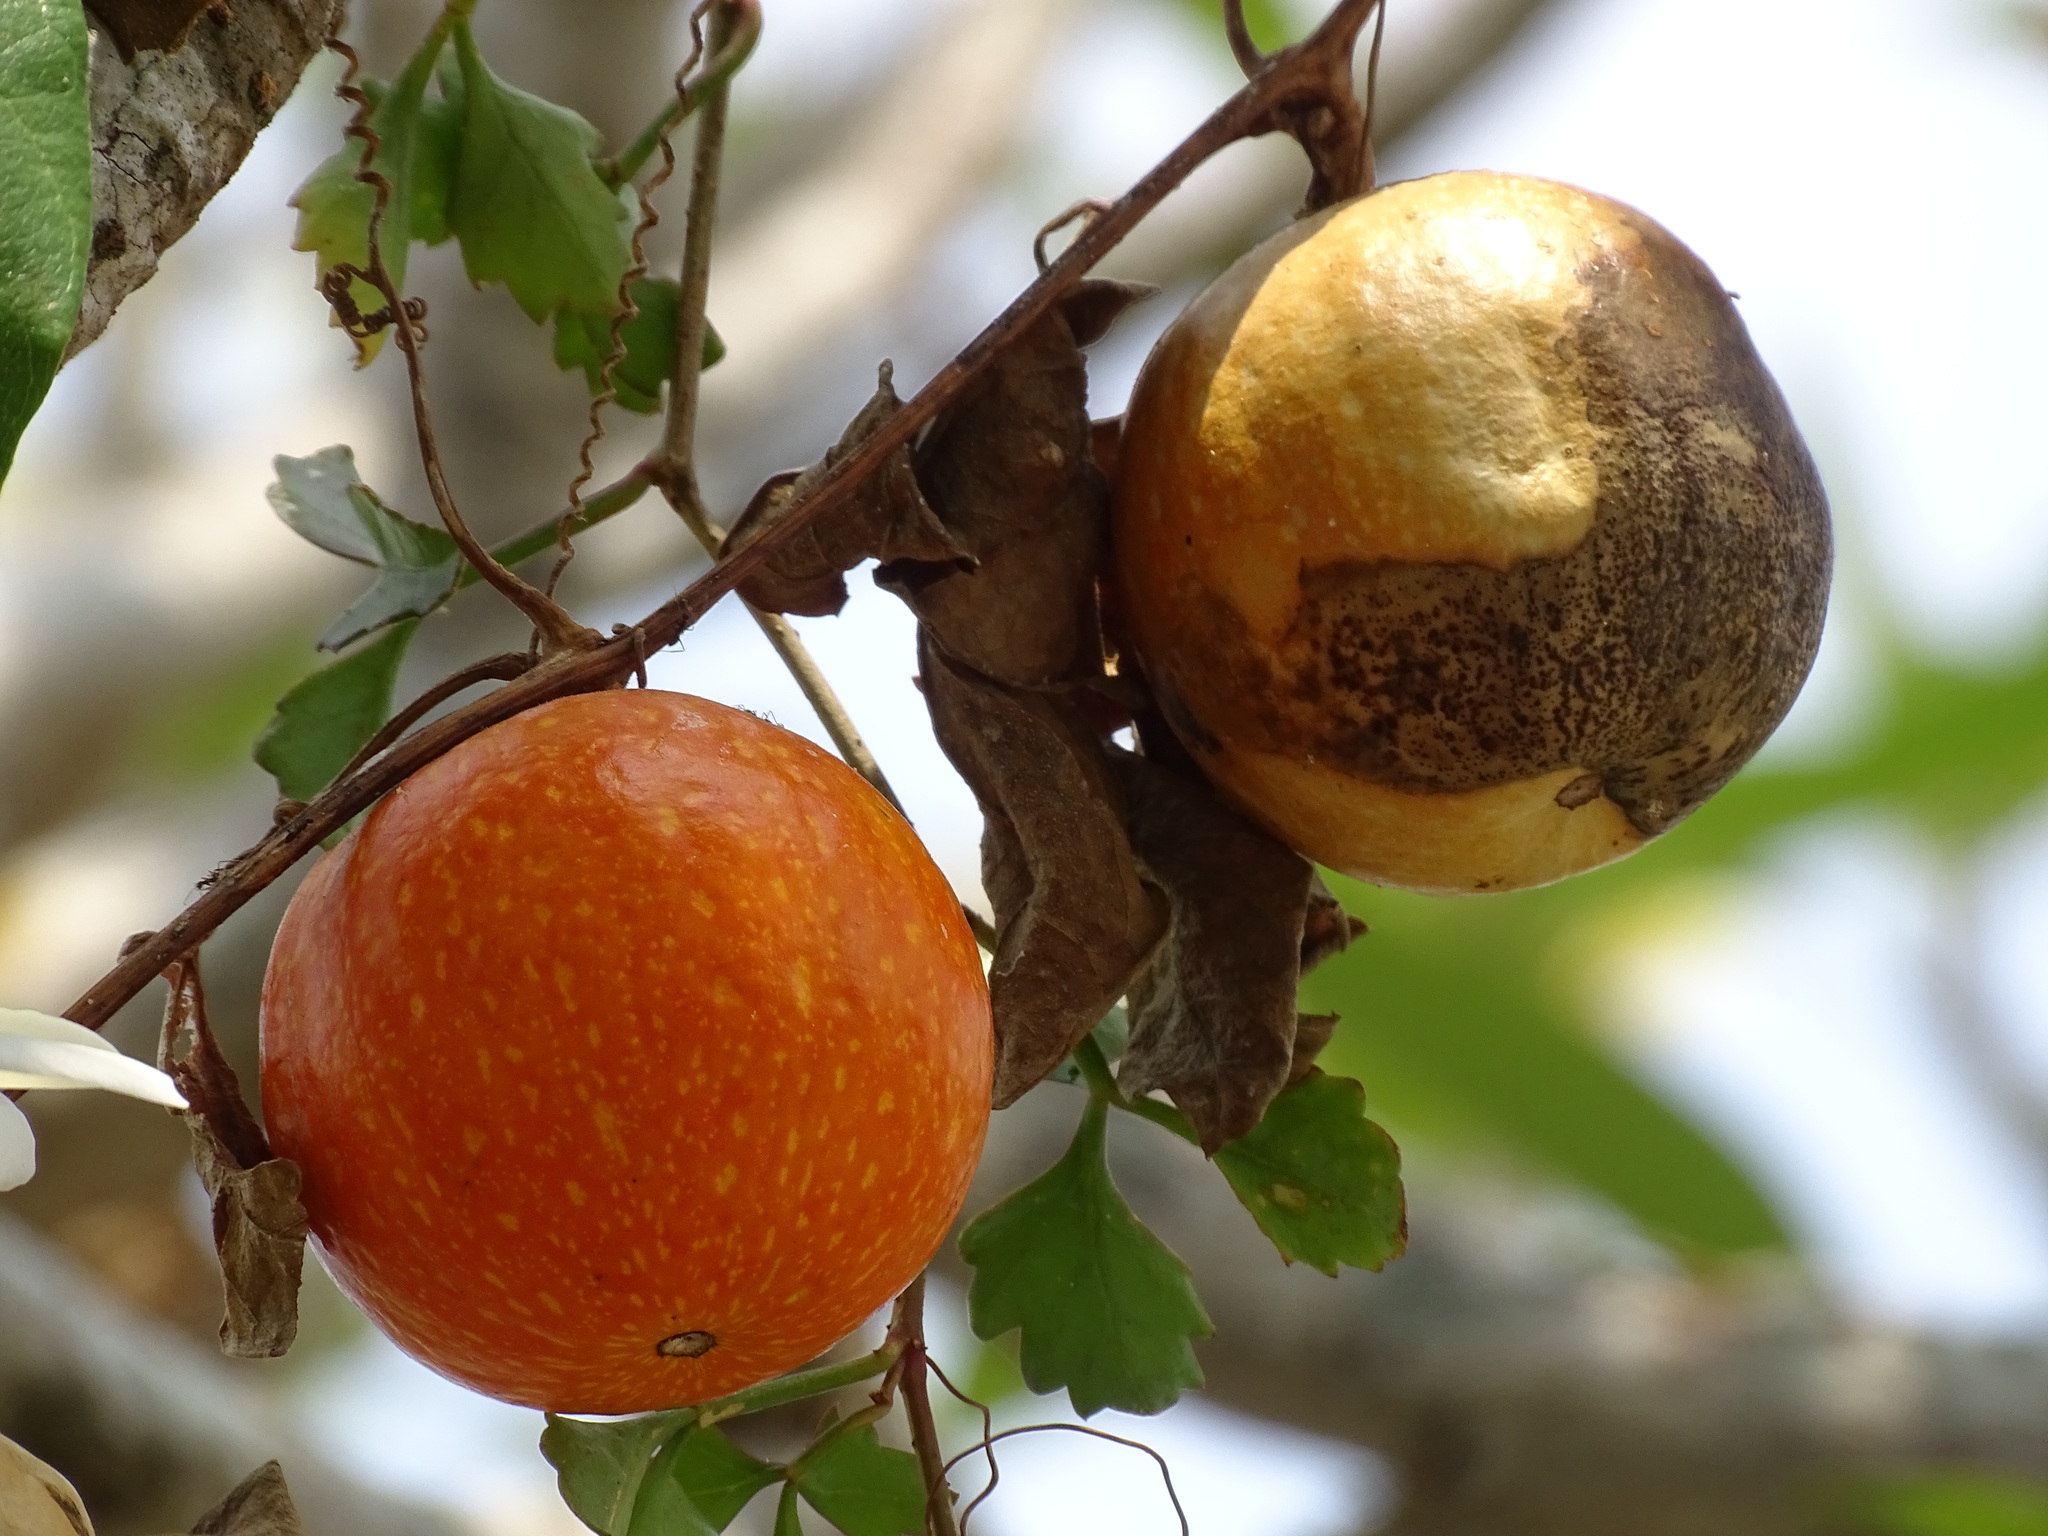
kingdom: Plantae
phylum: Tracheophyta
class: Magnoliopsida
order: Cucurbitales
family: Cucurbitaceae
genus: Cionosicys
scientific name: Cionosicys excisus
